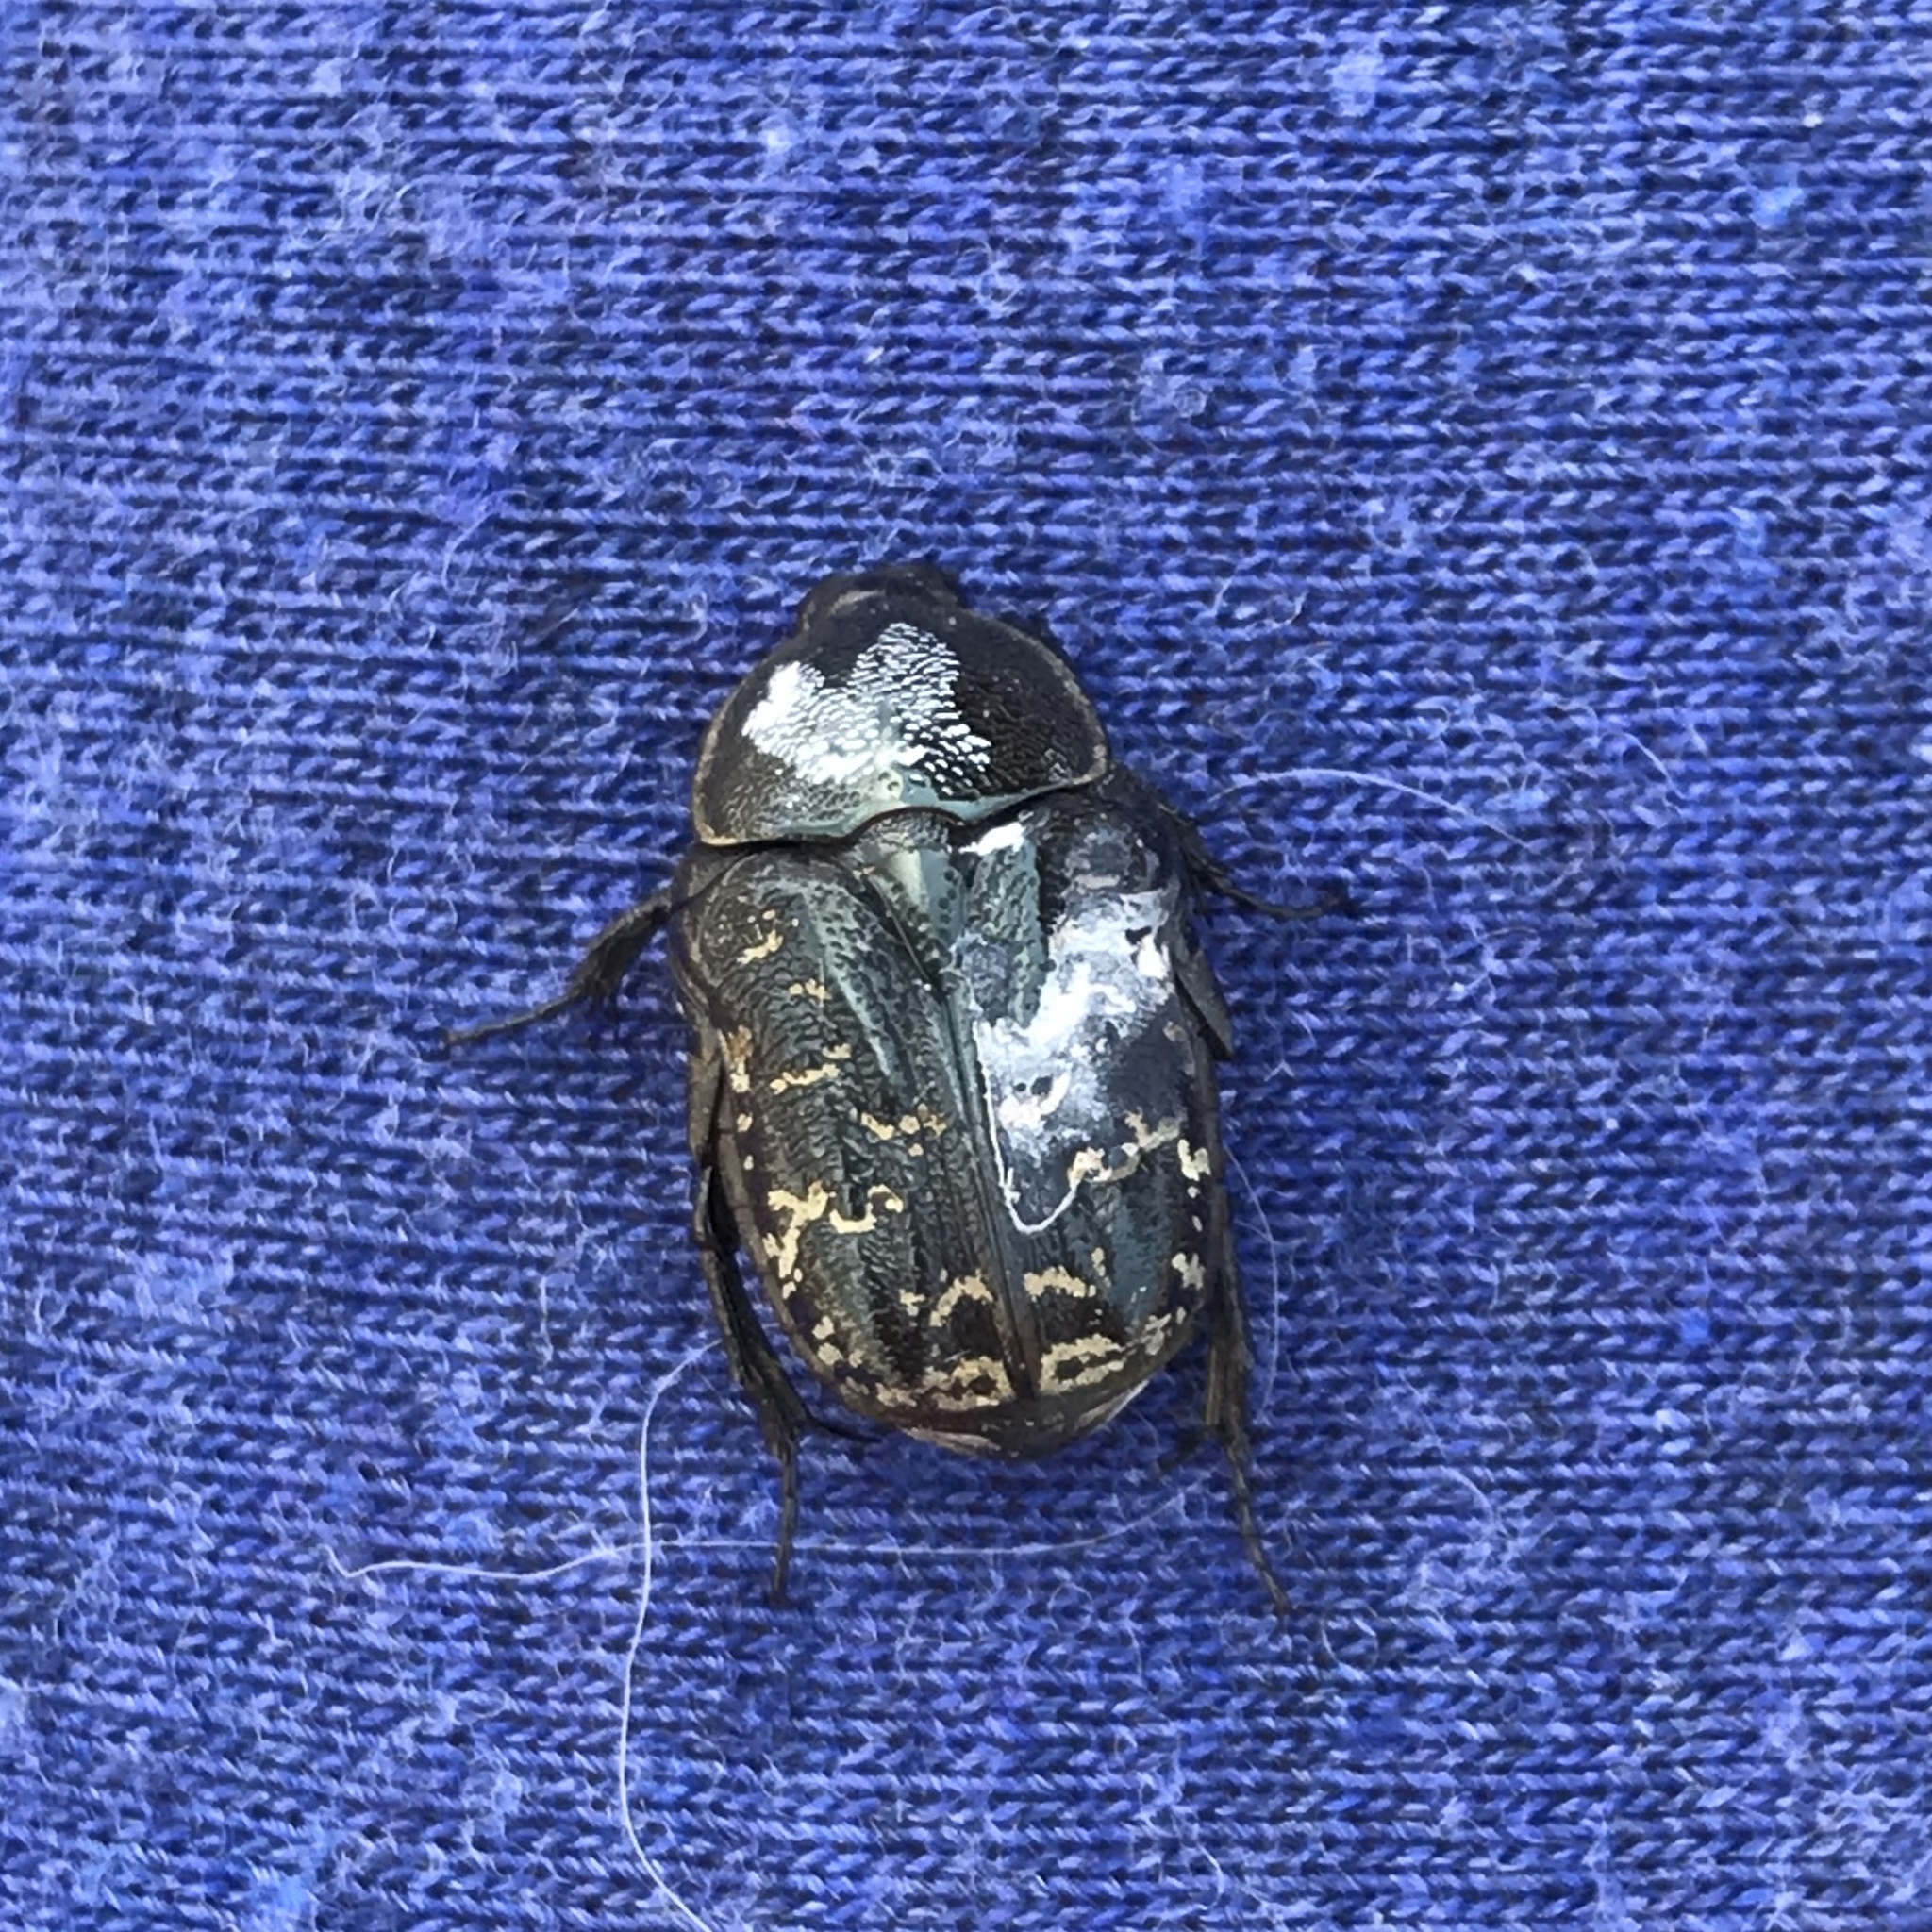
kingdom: Animalia
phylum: Arthropoda
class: Insecta
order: Coleoptera
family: Scarabaeidae
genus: Euphoria
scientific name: Euphoria sepulcralis
